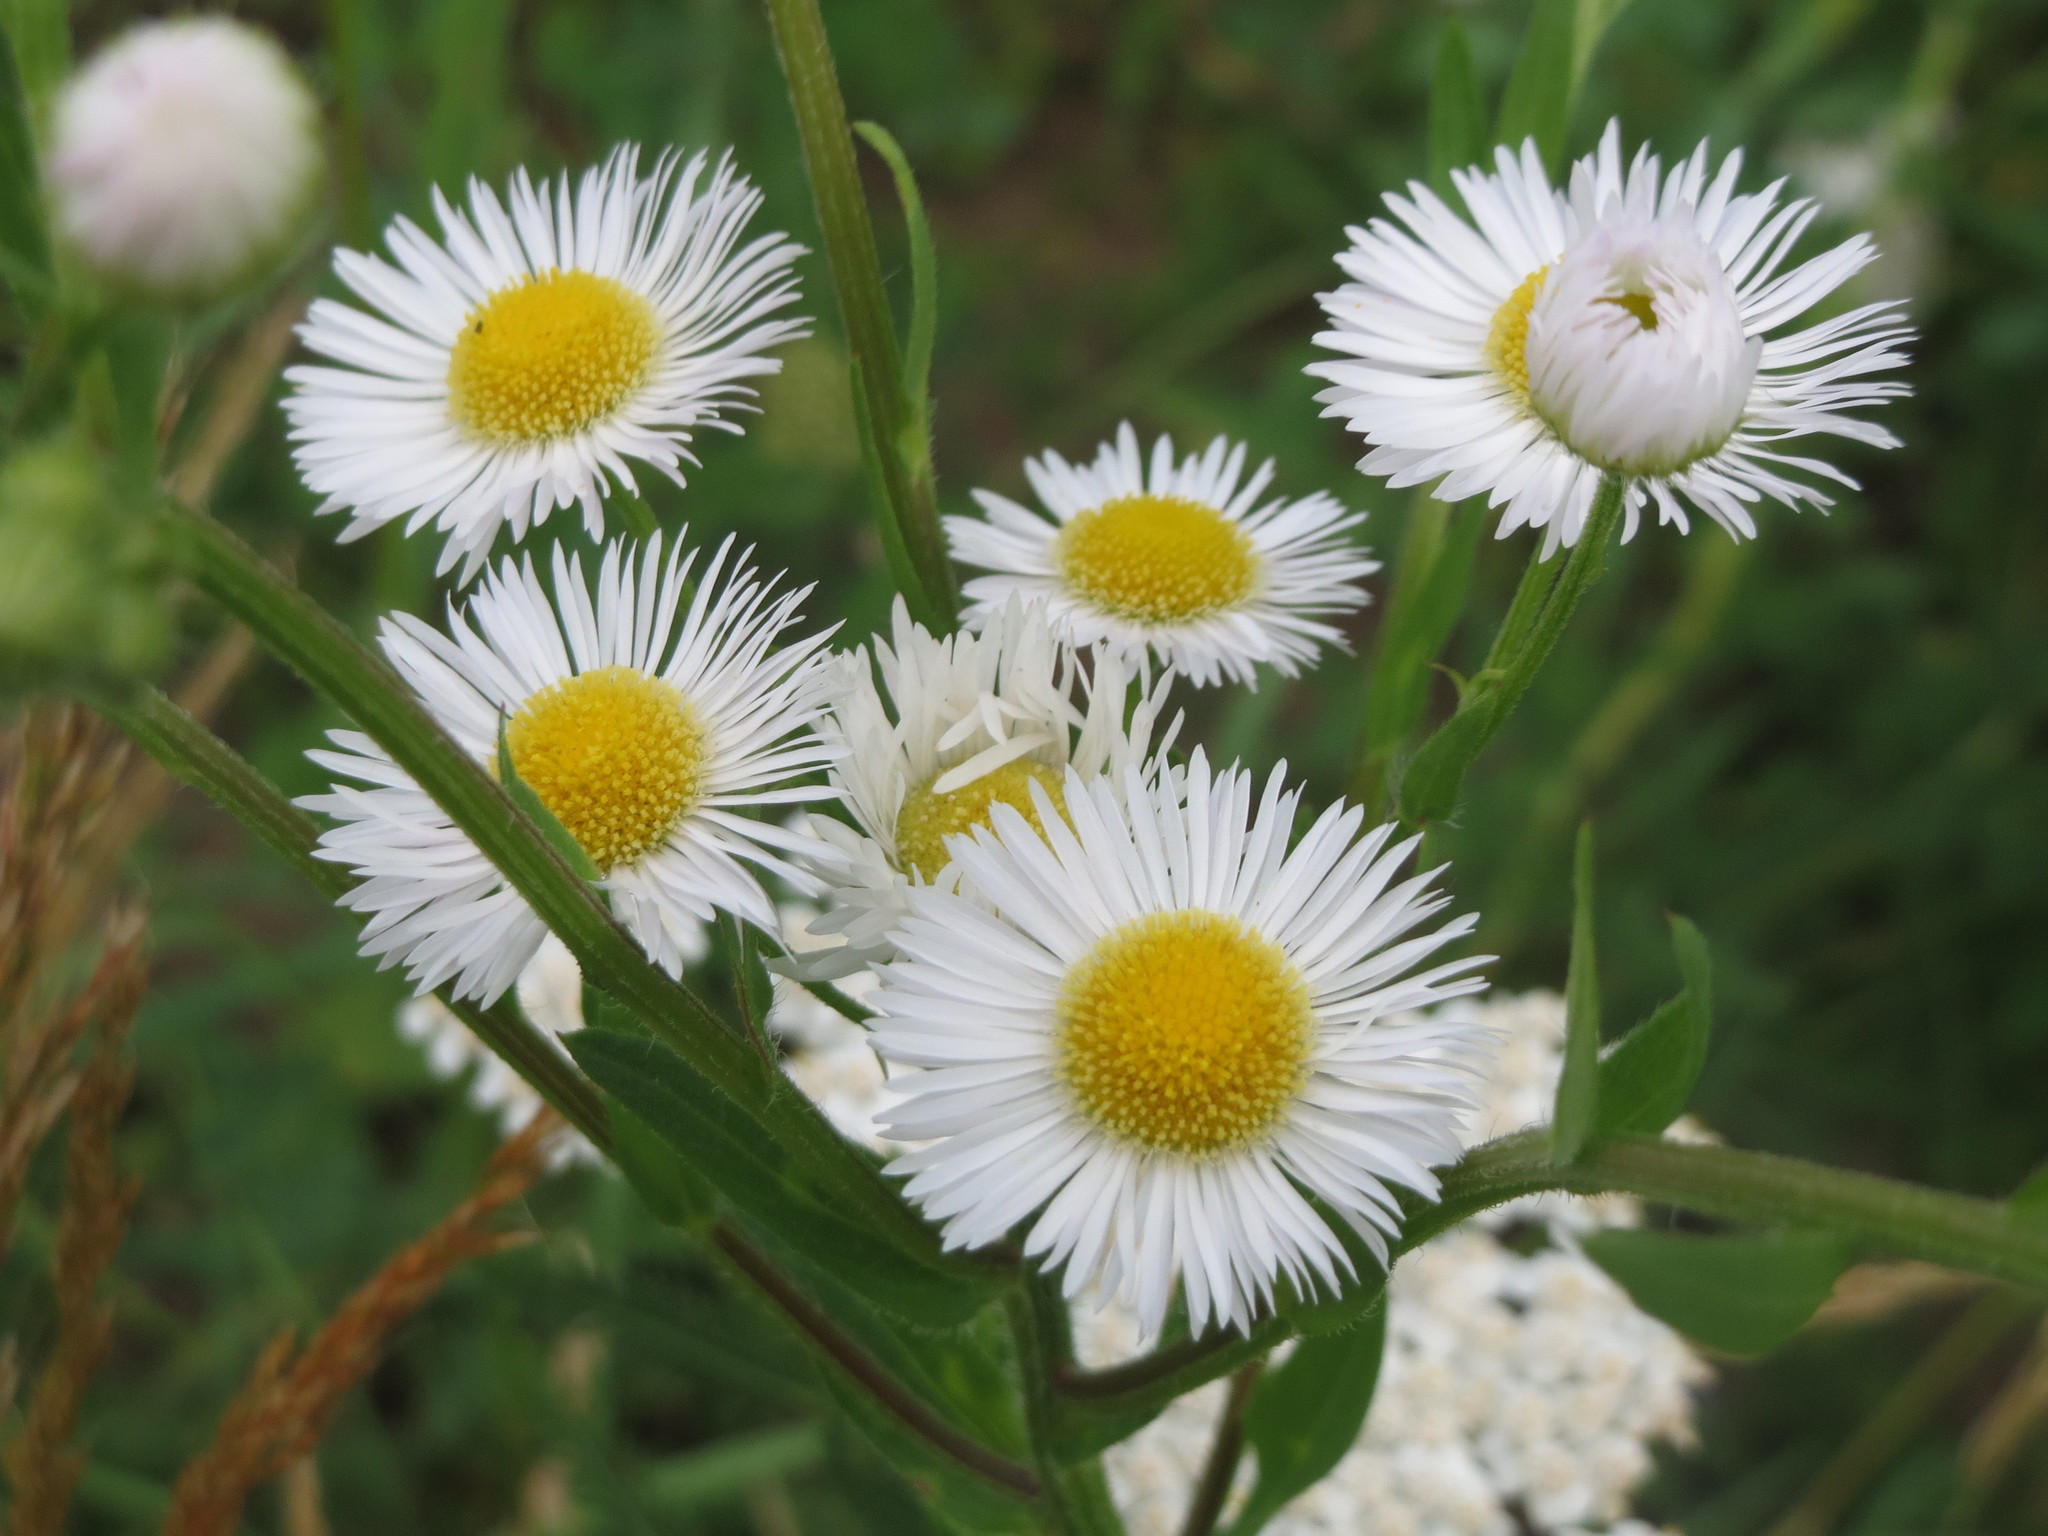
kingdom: Plantae
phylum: Tracheophyta
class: Magnoliopsida
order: Asterales
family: Asteraceae
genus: Erigeron
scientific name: Erigeron annuus
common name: Tall fleabane
